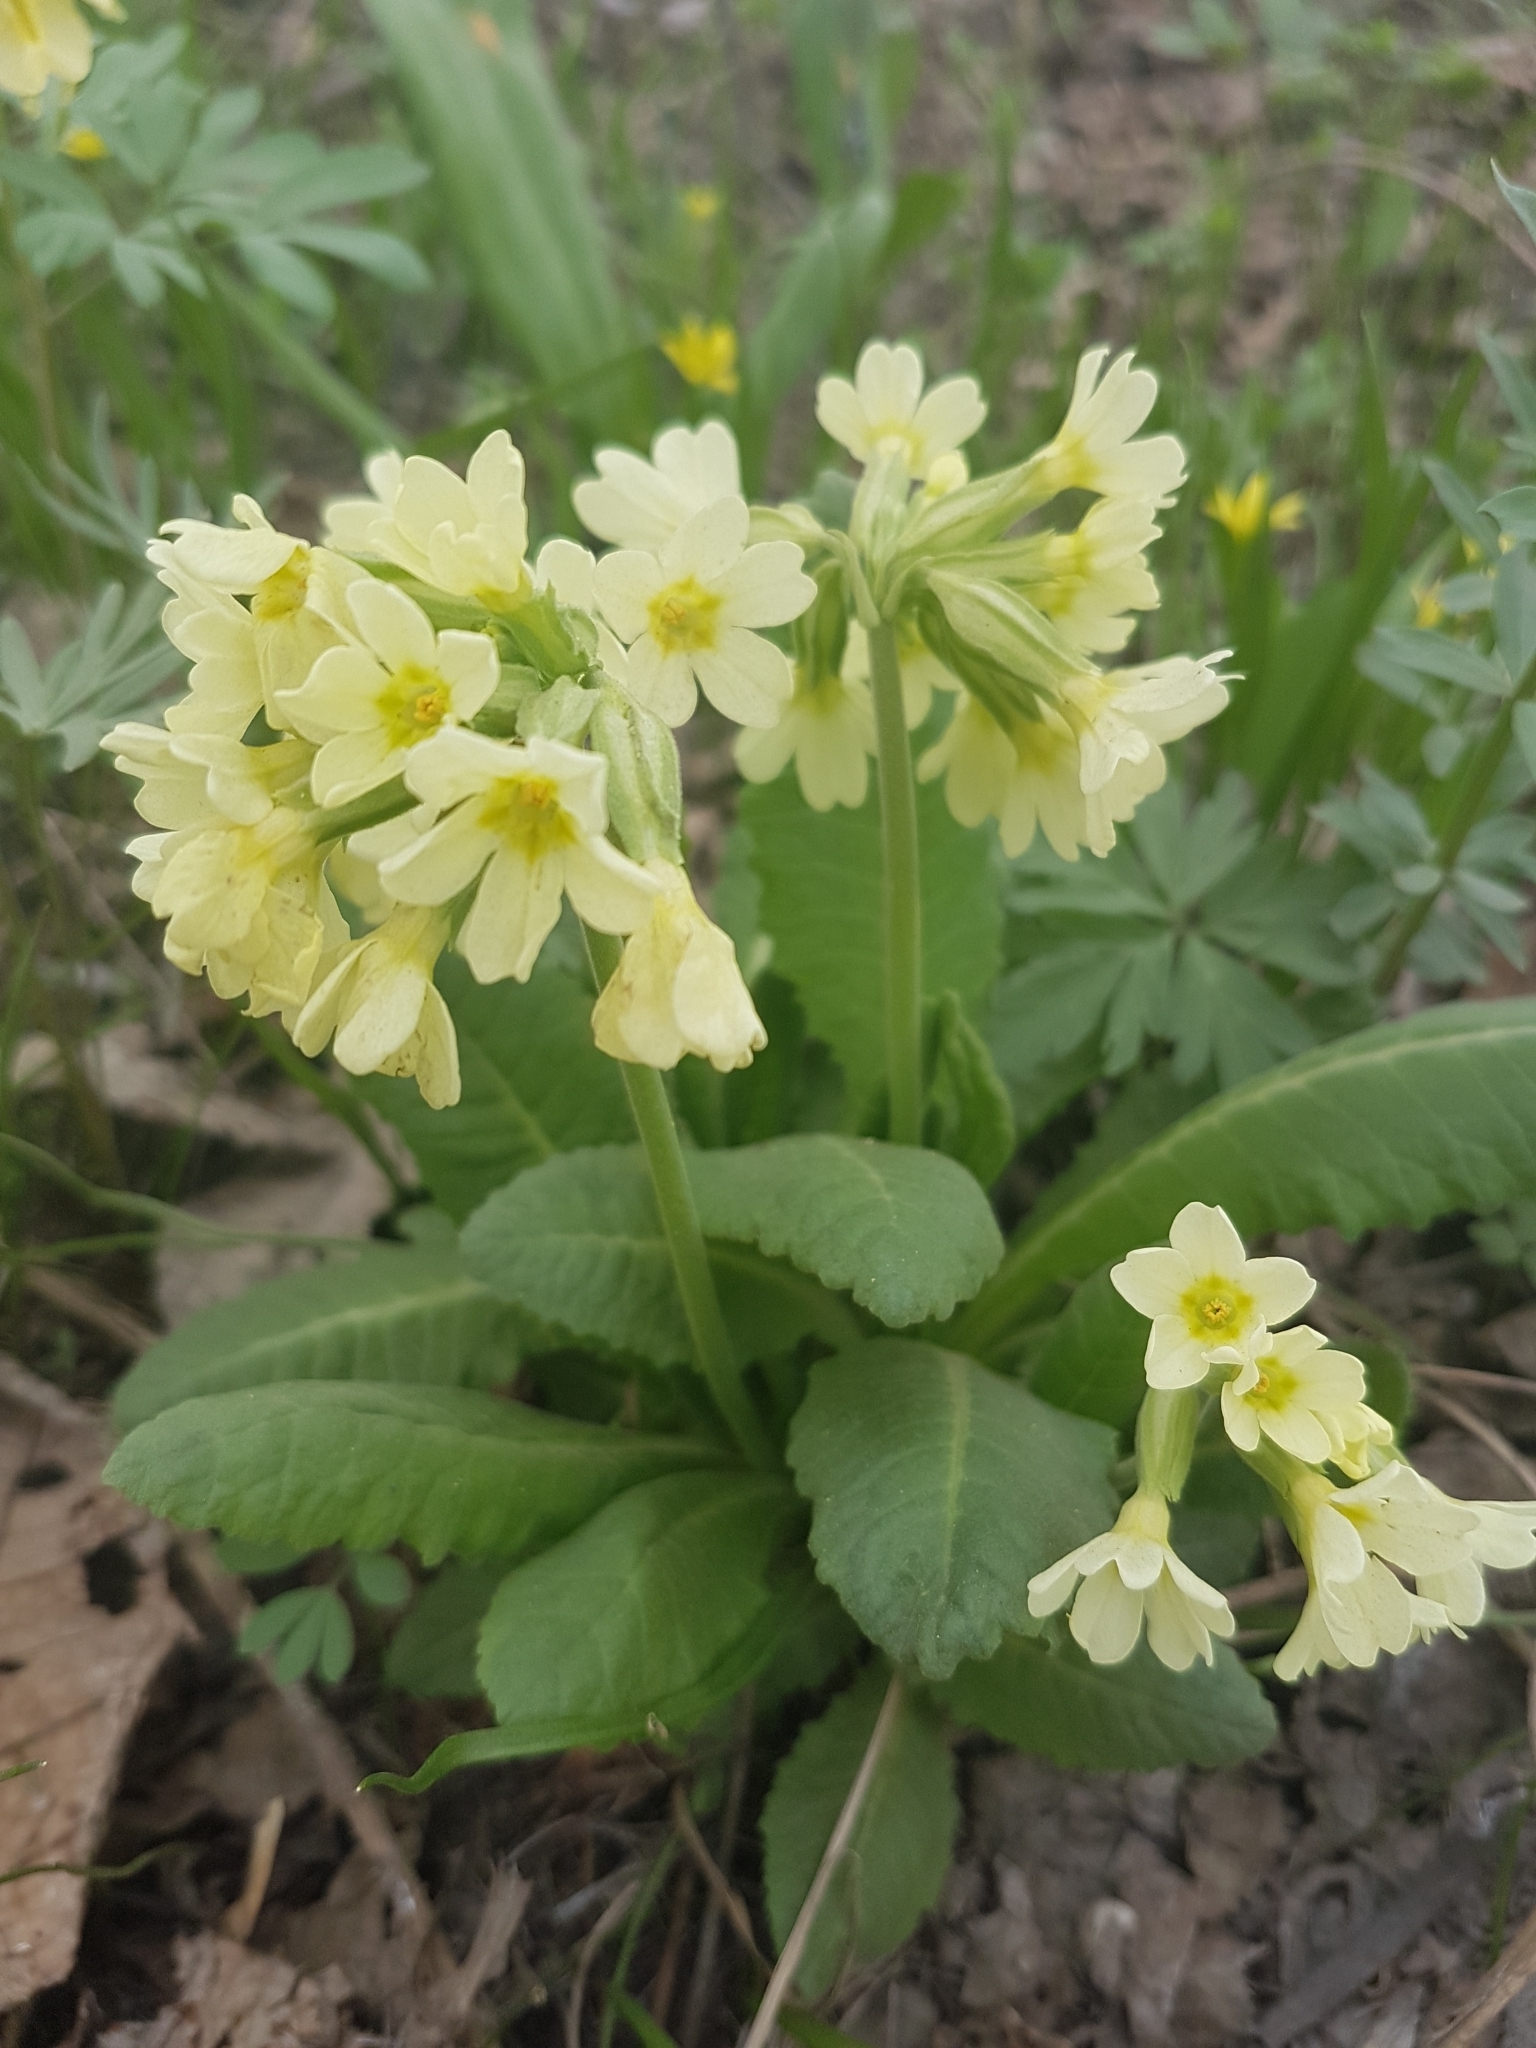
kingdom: Plantae
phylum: Tracheophyta
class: Magnoliopsida
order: Ericales
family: Primulaceae
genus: Primula
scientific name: Primula elatior
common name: Oxlip
